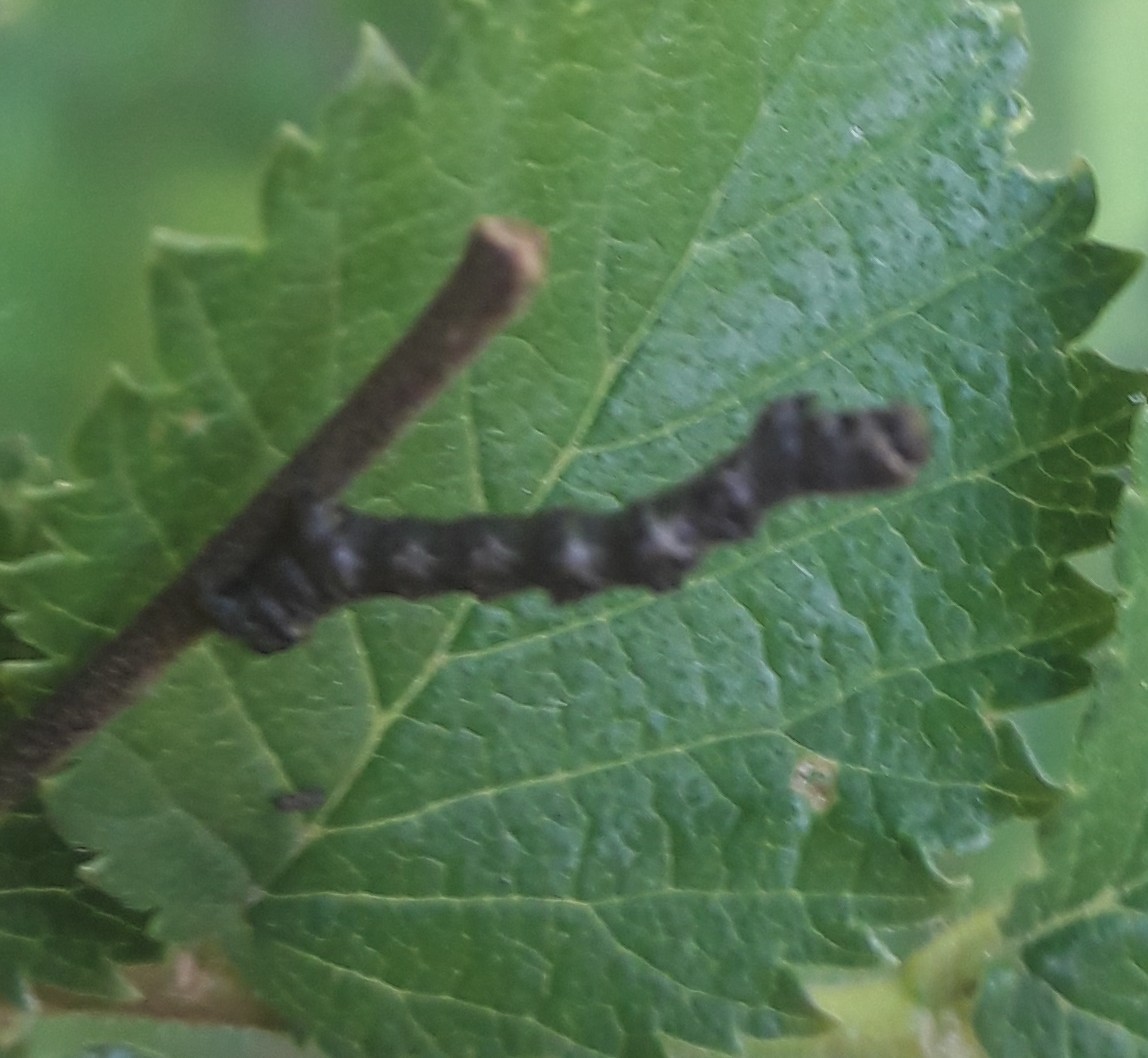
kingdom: Animalia
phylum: Arthropoda
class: Insecta
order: Lepidoptera
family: Geometridae
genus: Phigalia
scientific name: Phigalia pilosaria
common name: Pale brindled beauty
